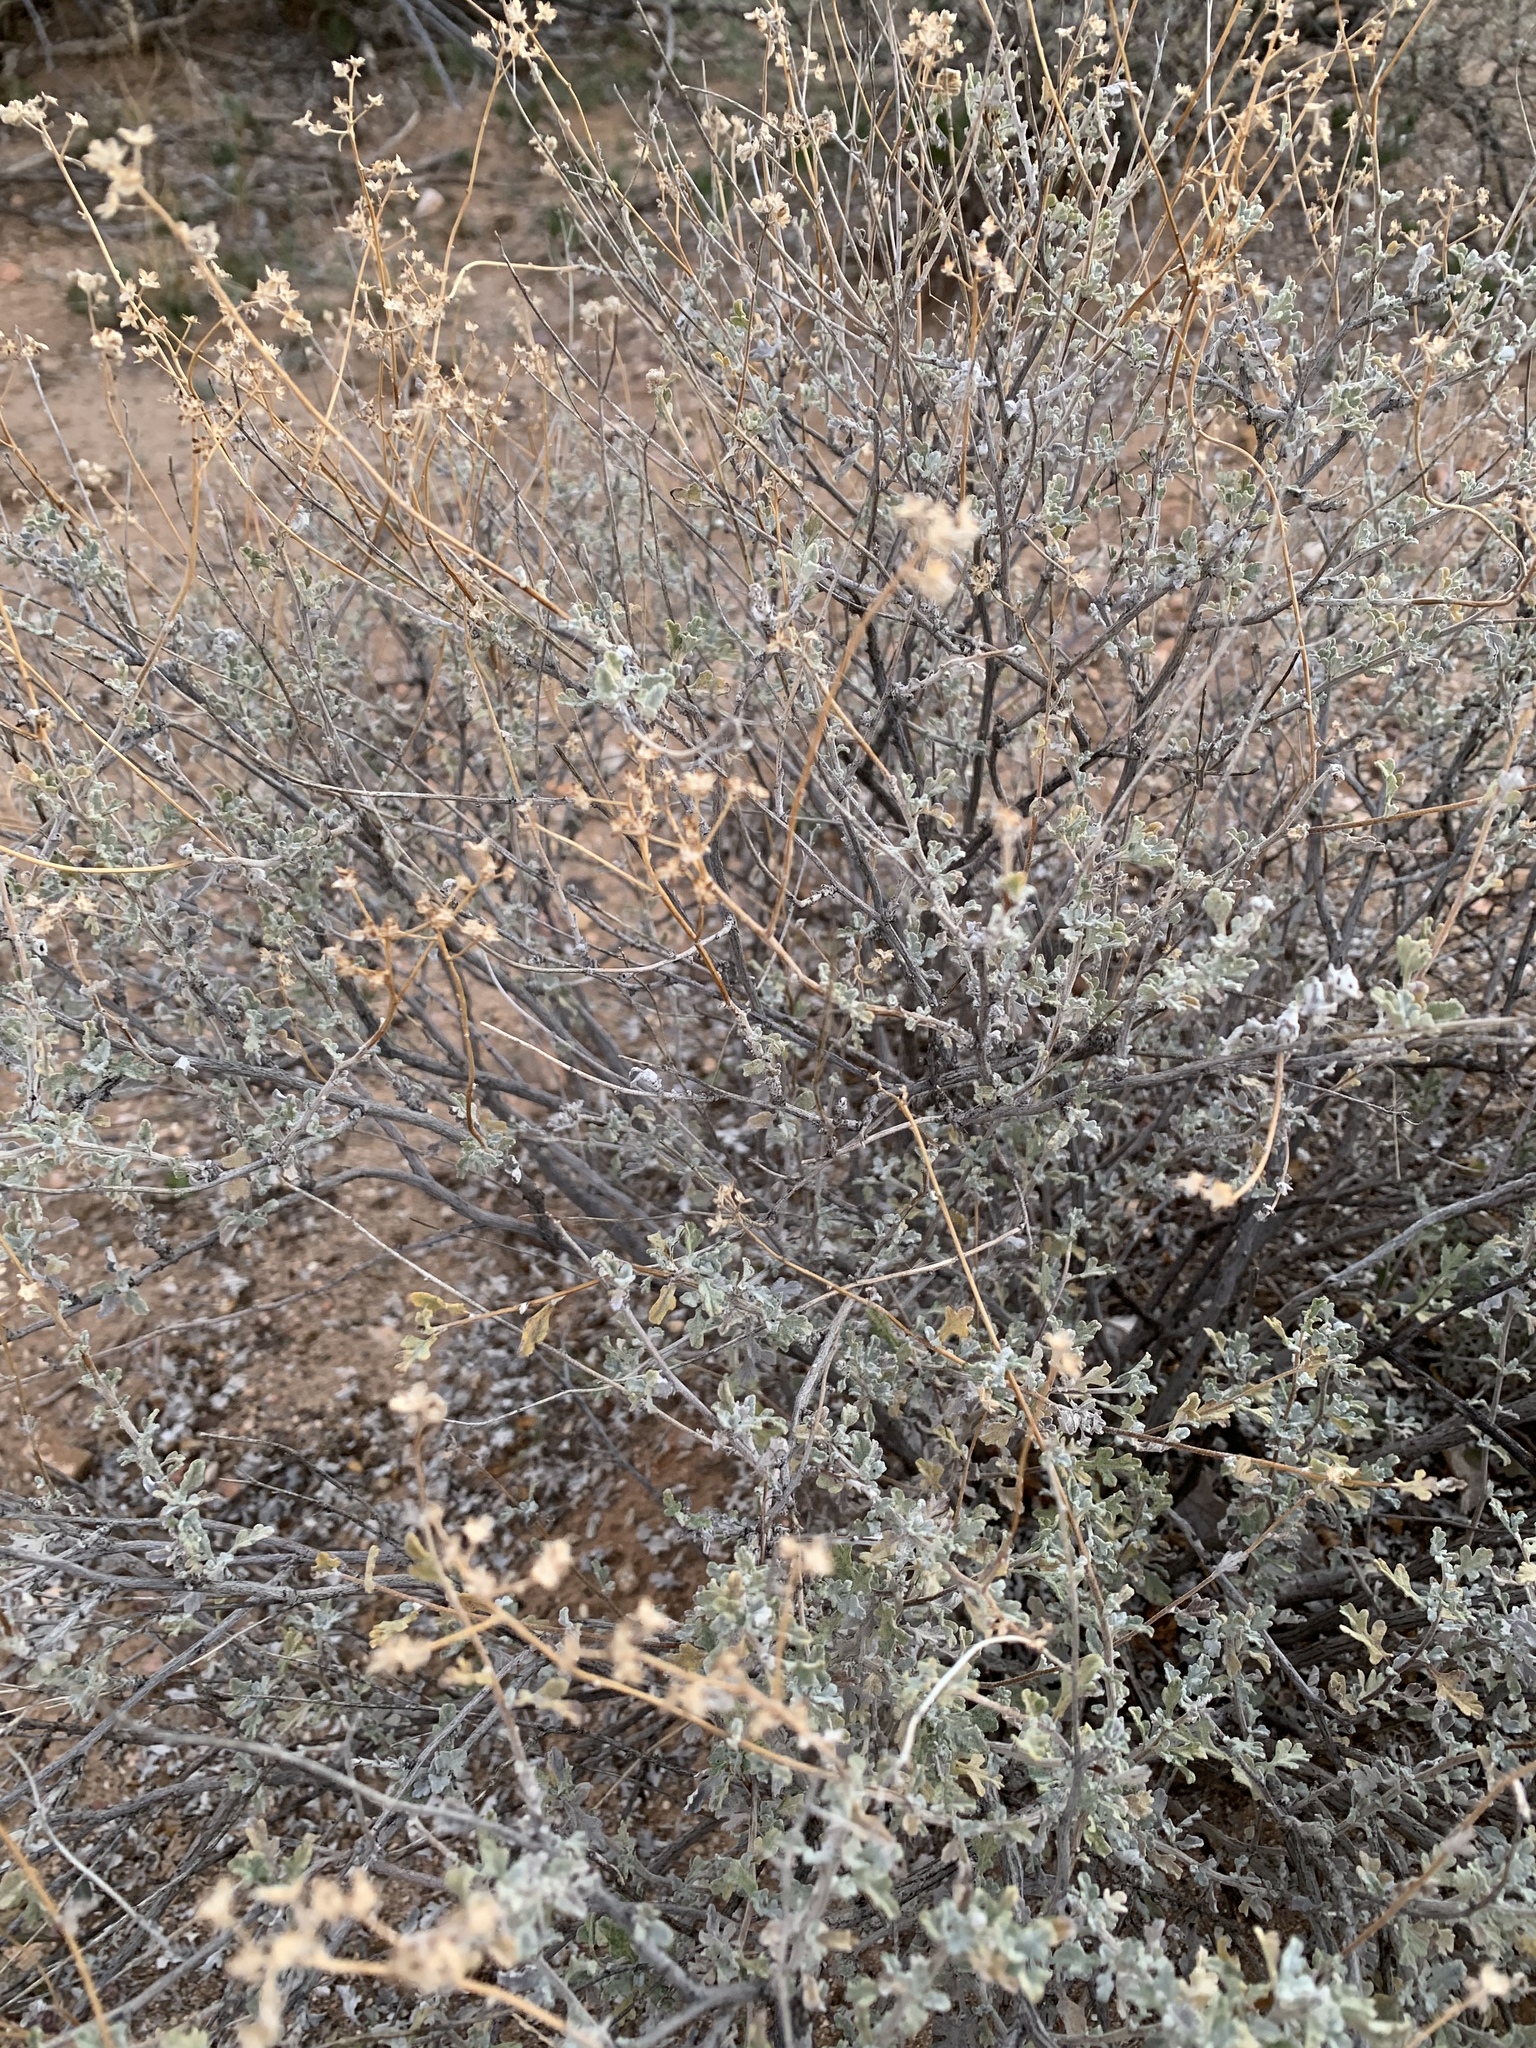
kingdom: Plantae
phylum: Tracheophyta
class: Magnoliopsida
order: Asterales
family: Asteraceae
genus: Parthenium
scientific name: Parthenium incanum
